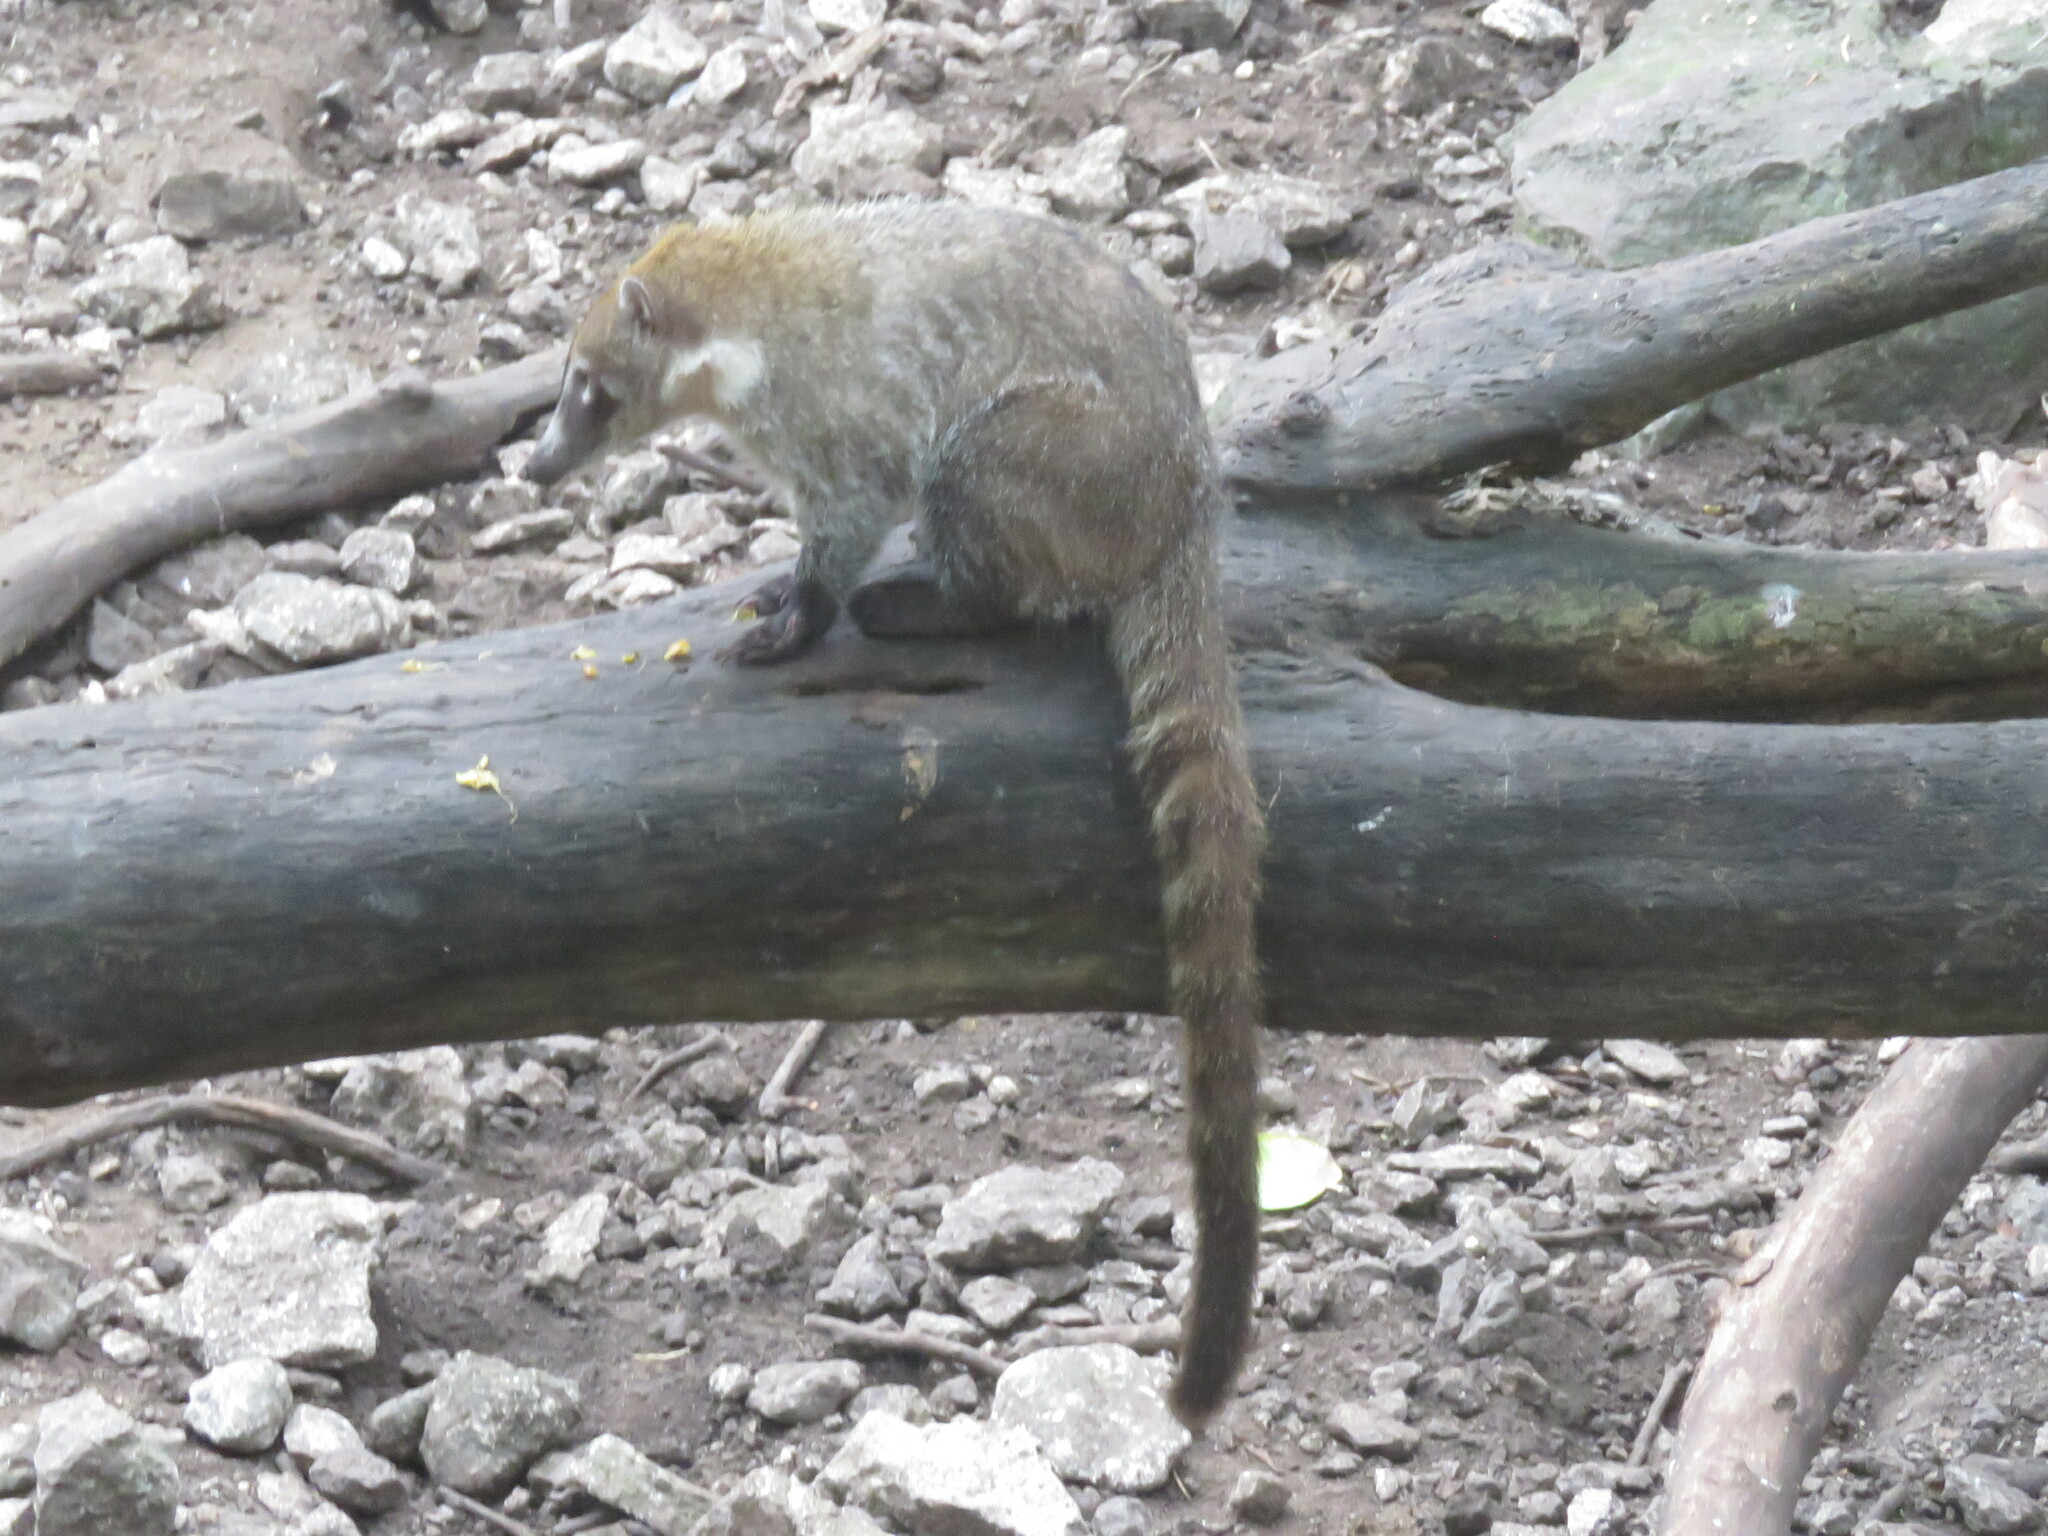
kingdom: Animalia
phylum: Chordata
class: Mammalia
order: Carnivora
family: Procyonidae
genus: Nasua
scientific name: Nasua narica
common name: White-nosed coati
